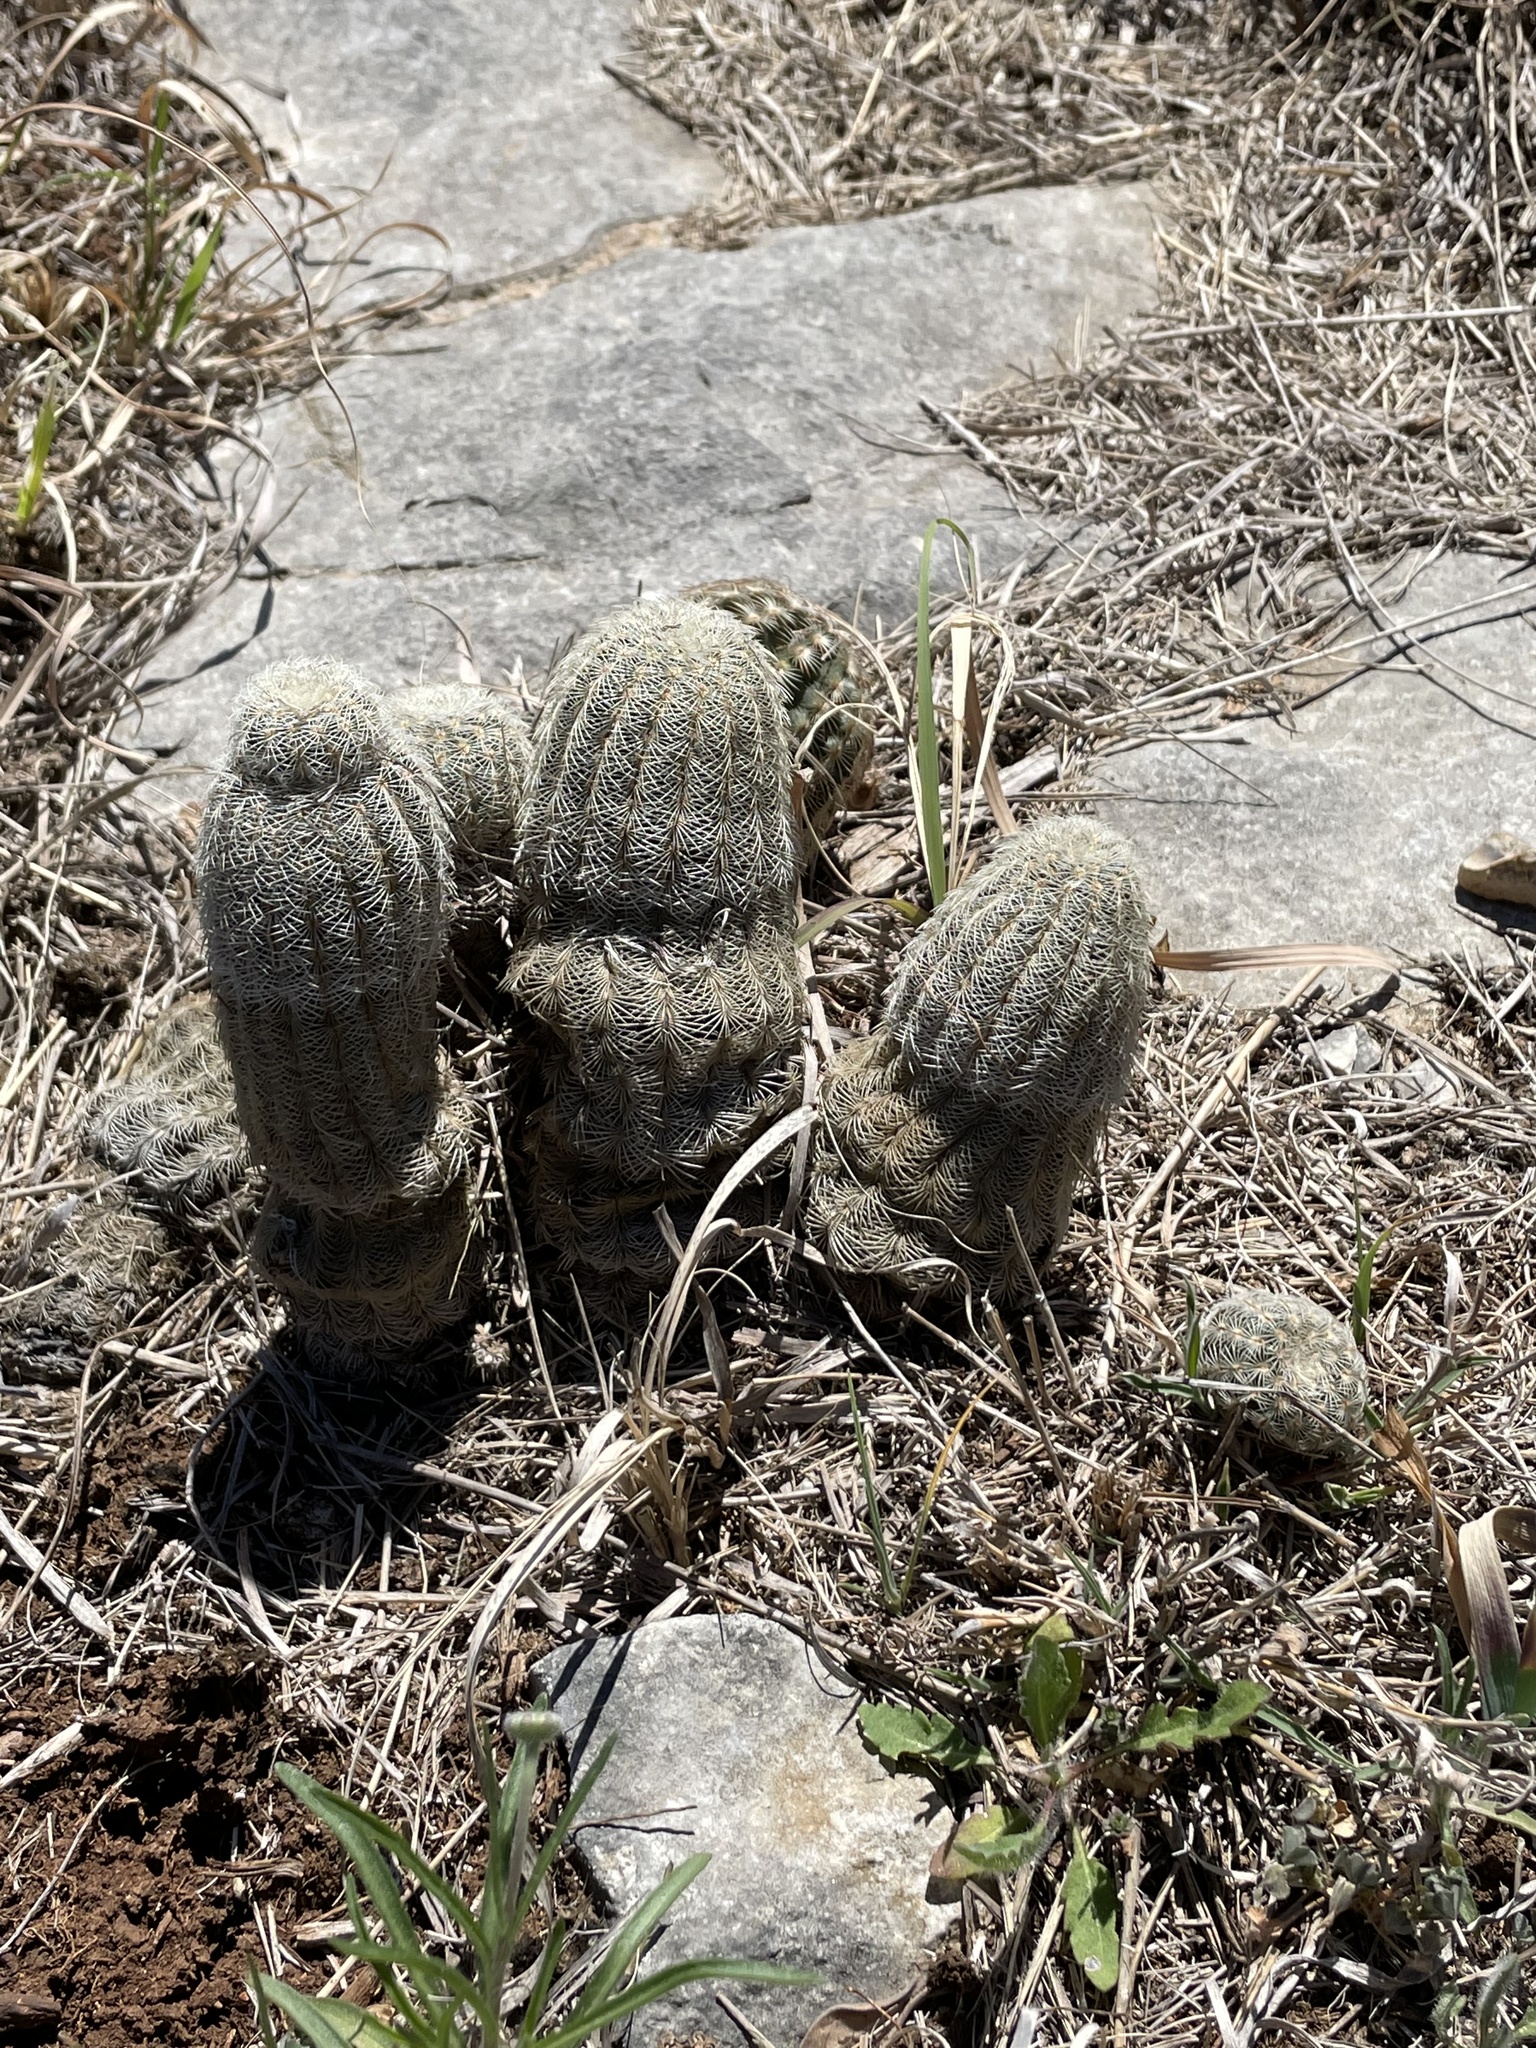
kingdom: Plantae
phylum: Tracheophyta
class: Magnoliopsida
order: Caryophyllales
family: Cactaceae
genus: Echinocereus
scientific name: Echinocereus reichenbachii
